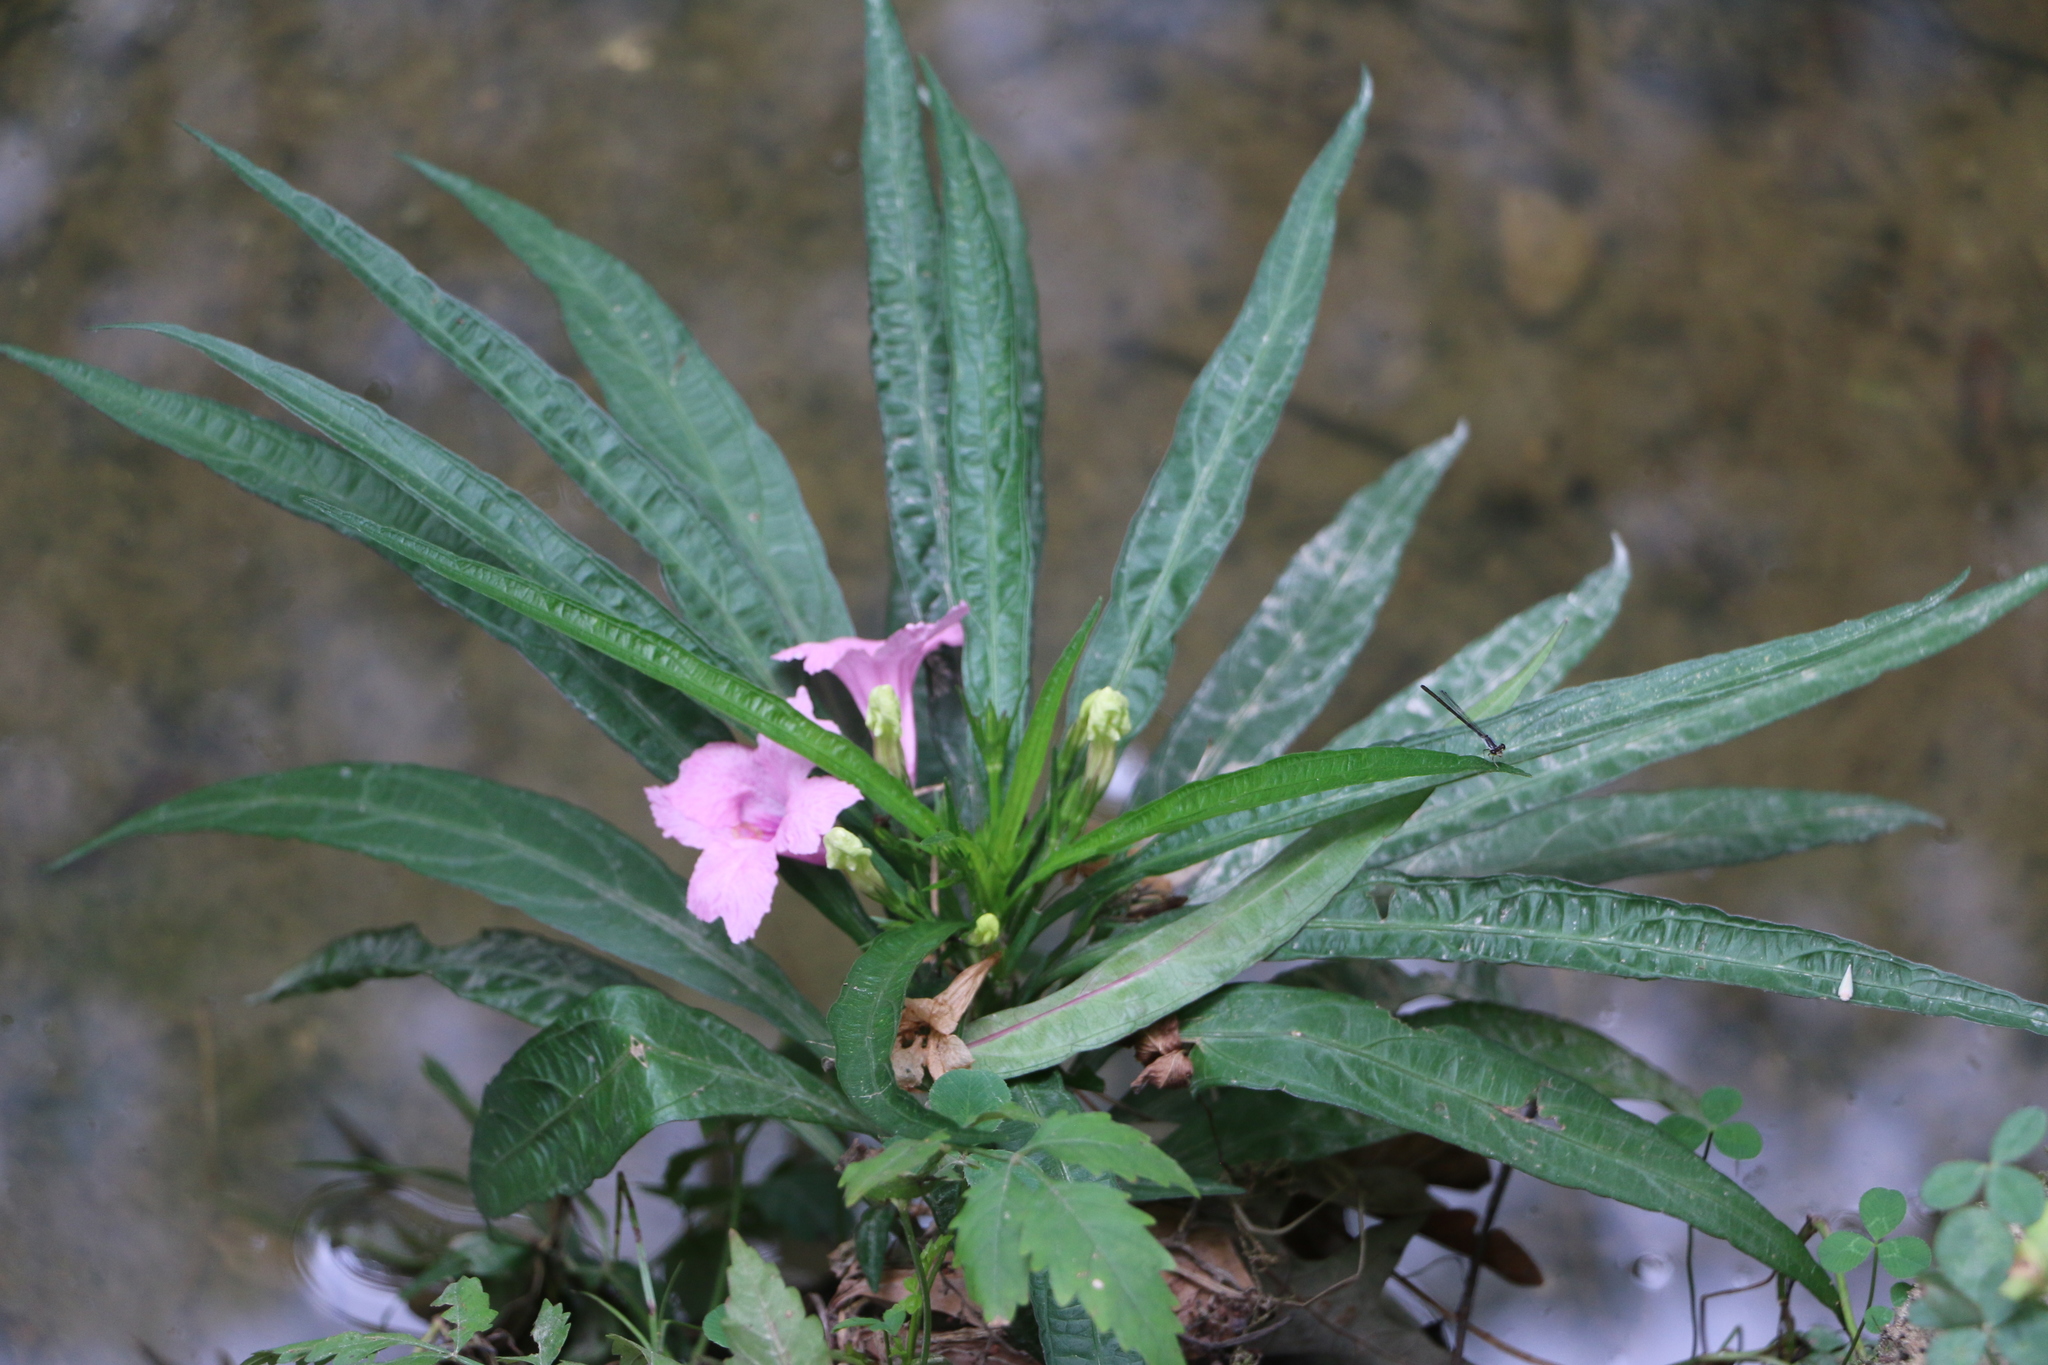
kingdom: Plantae
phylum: Tracheophyta
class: Magnoliopsida
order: Lamiales
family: Acanthaceae
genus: Ruellia
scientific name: Ruellia simplex
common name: Softseed wild petunia
